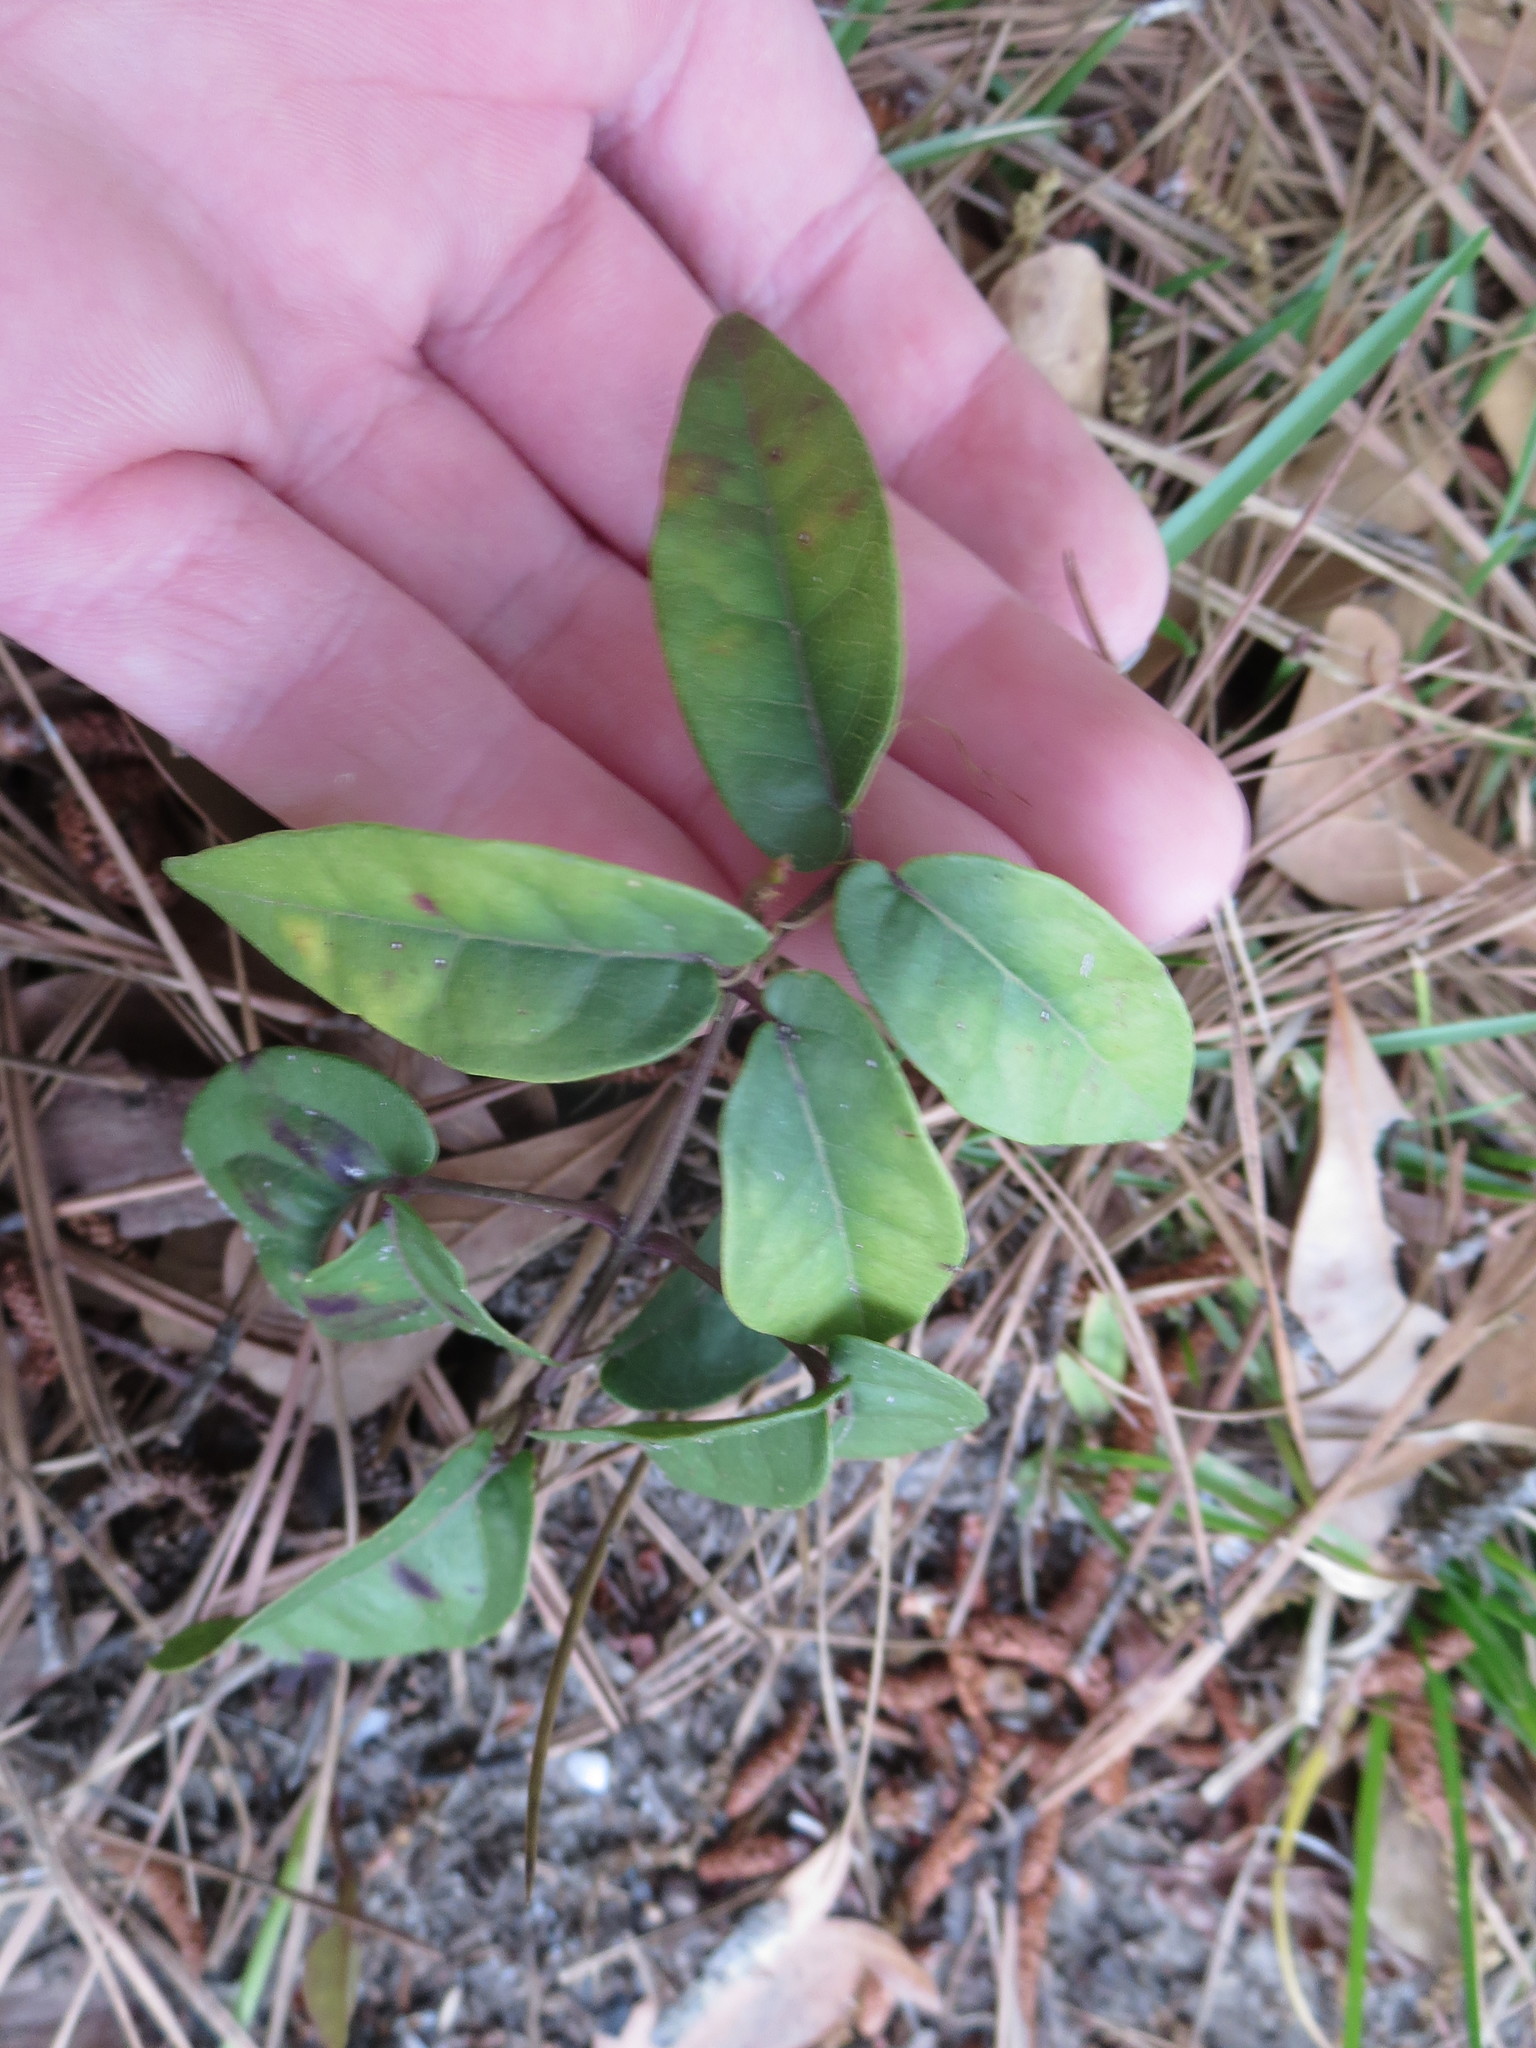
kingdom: Plantae
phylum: Tracheophyta
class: Magnoliopsida
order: Lamiales
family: Bignoniaceae
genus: Bignonia
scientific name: Bignonia capreolata
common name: Crossvine
